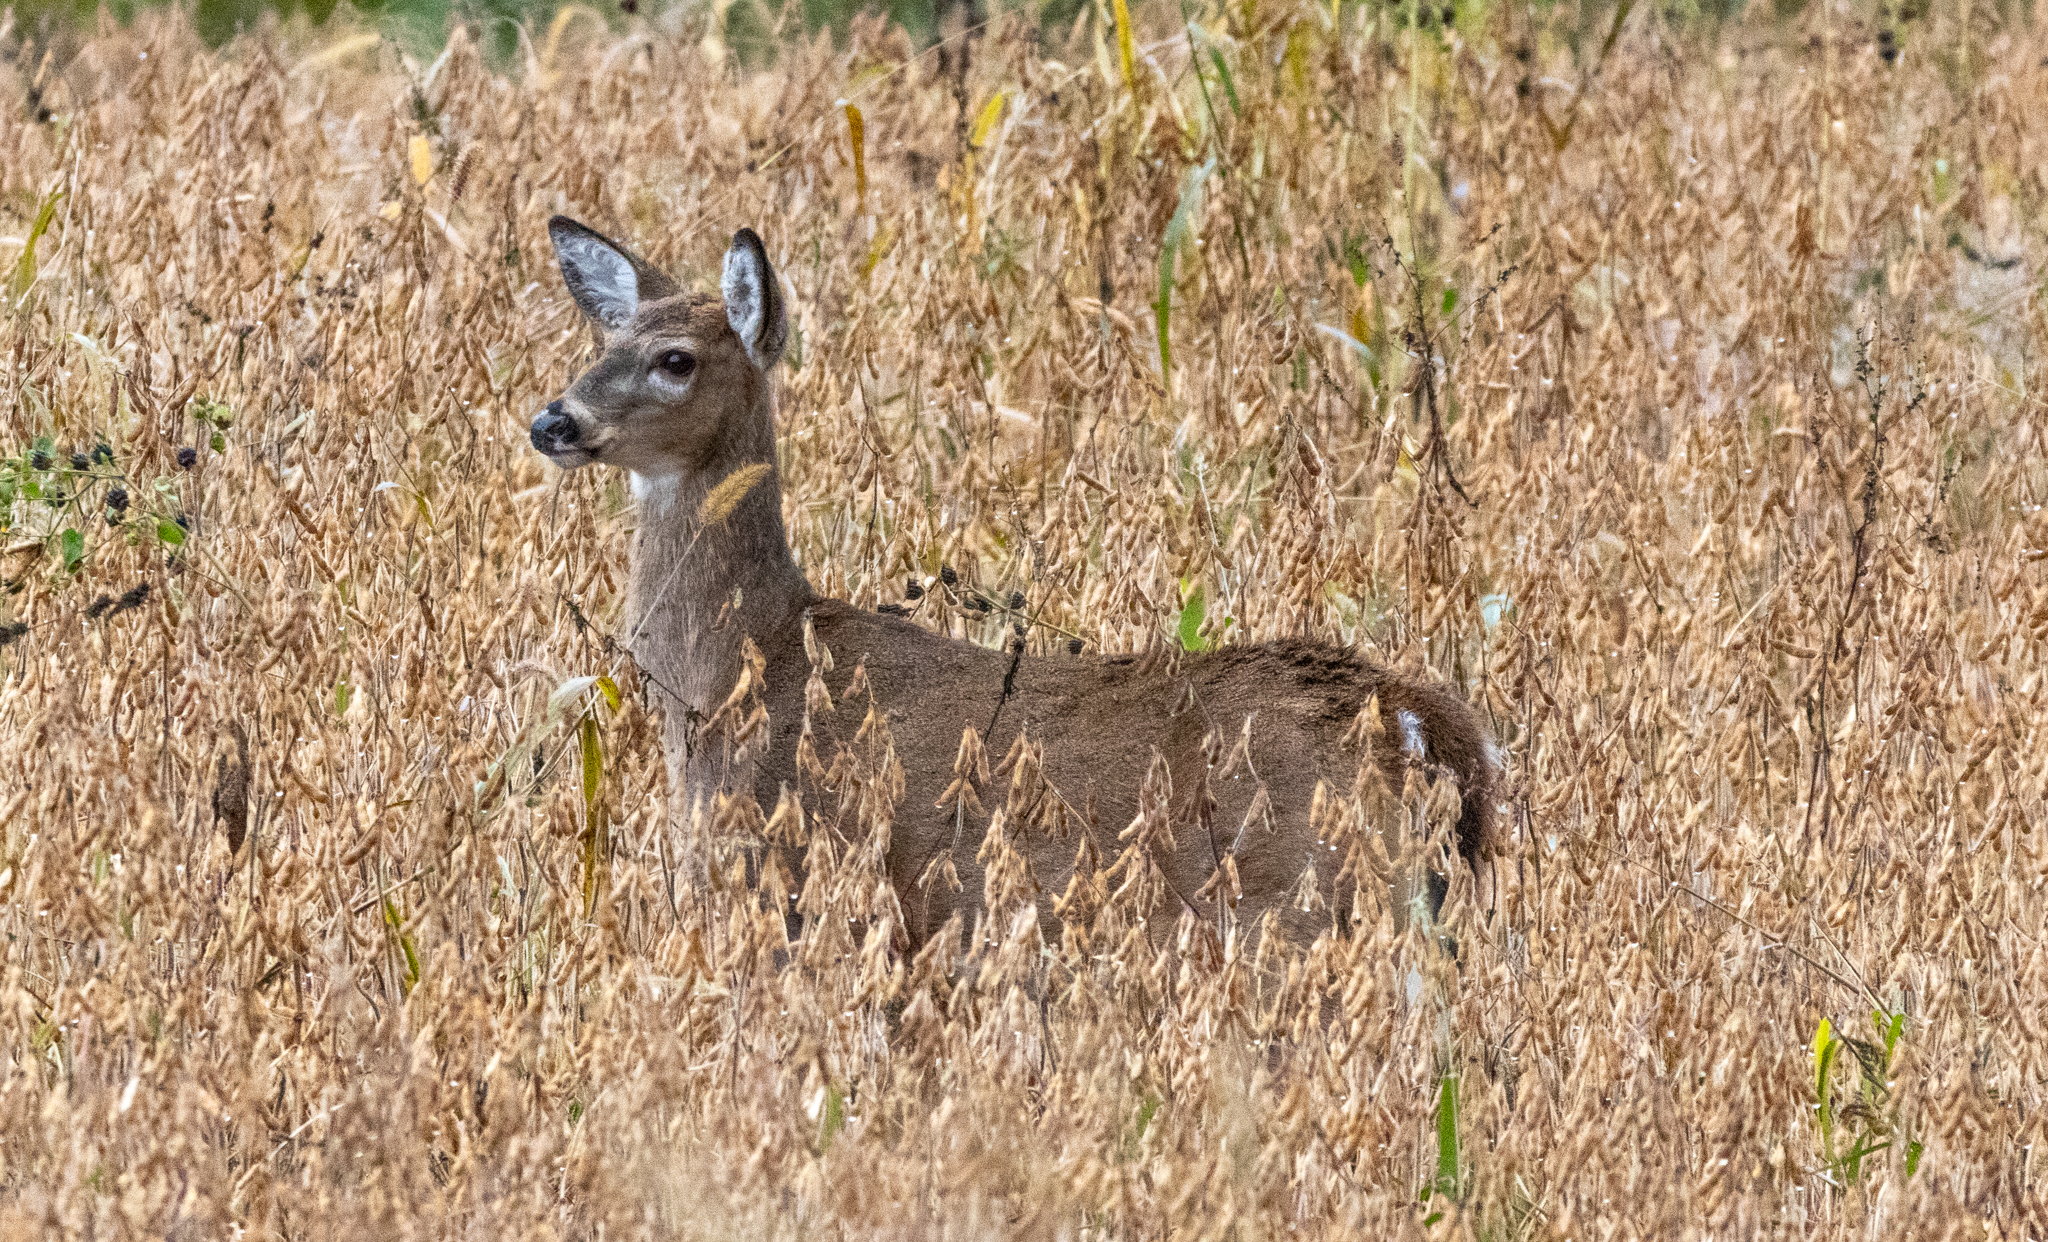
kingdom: Animalia
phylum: Chordata
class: Mammalia
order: Artiodactyla
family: Cervidae
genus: Odocoileus
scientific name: Odocoileus virginianus
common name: White-tailed deer
